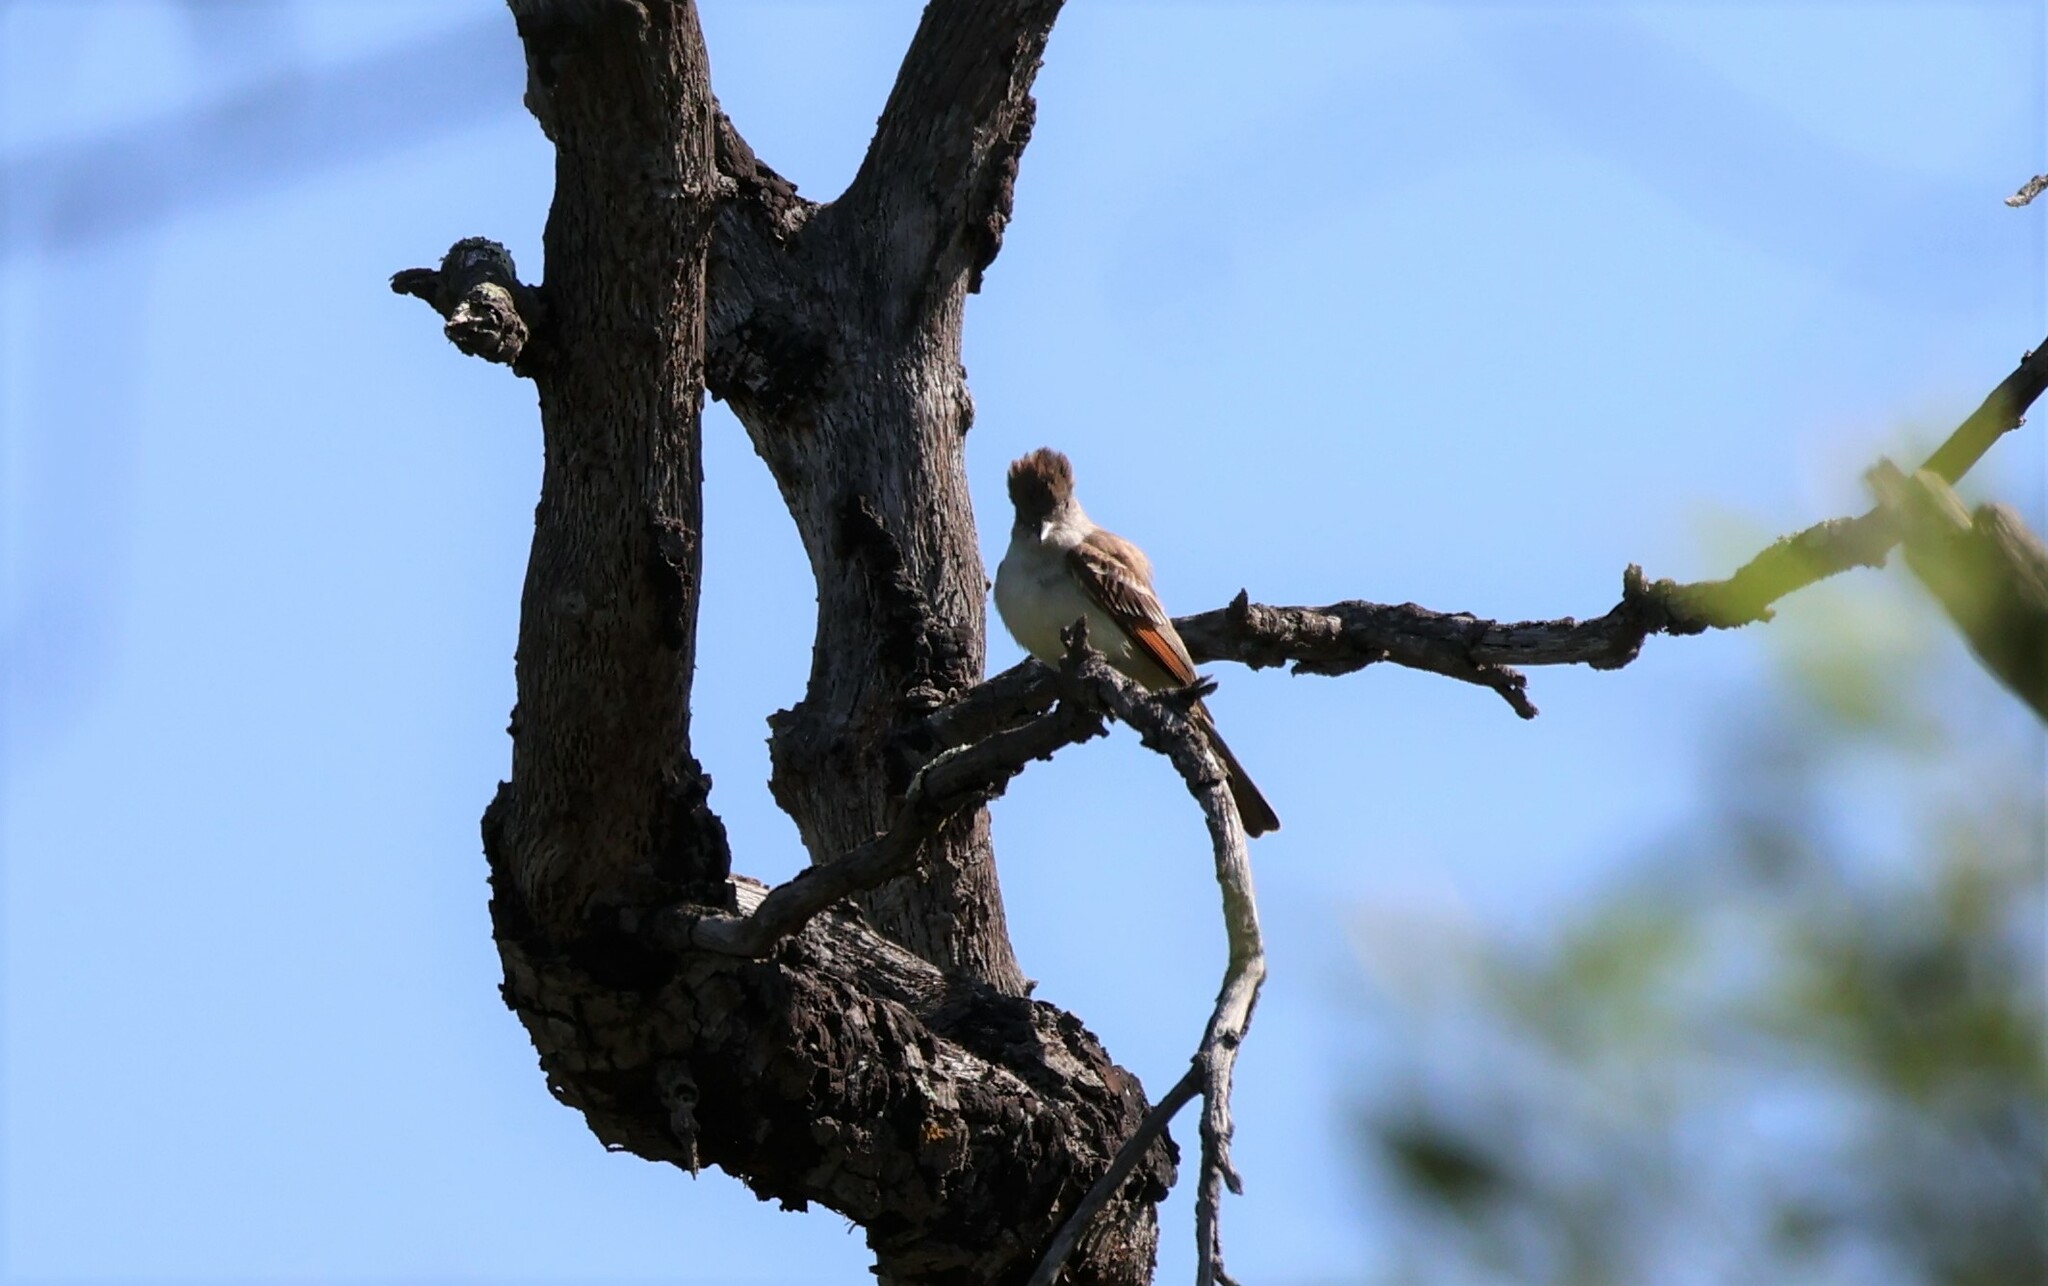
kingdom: Animalia
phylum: Chordata
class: Aves
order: Passeriformes
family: Tyrannidae
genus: Myiarchus
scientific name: Myiarchus cinerascens
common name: Ash-throated flycatcher
